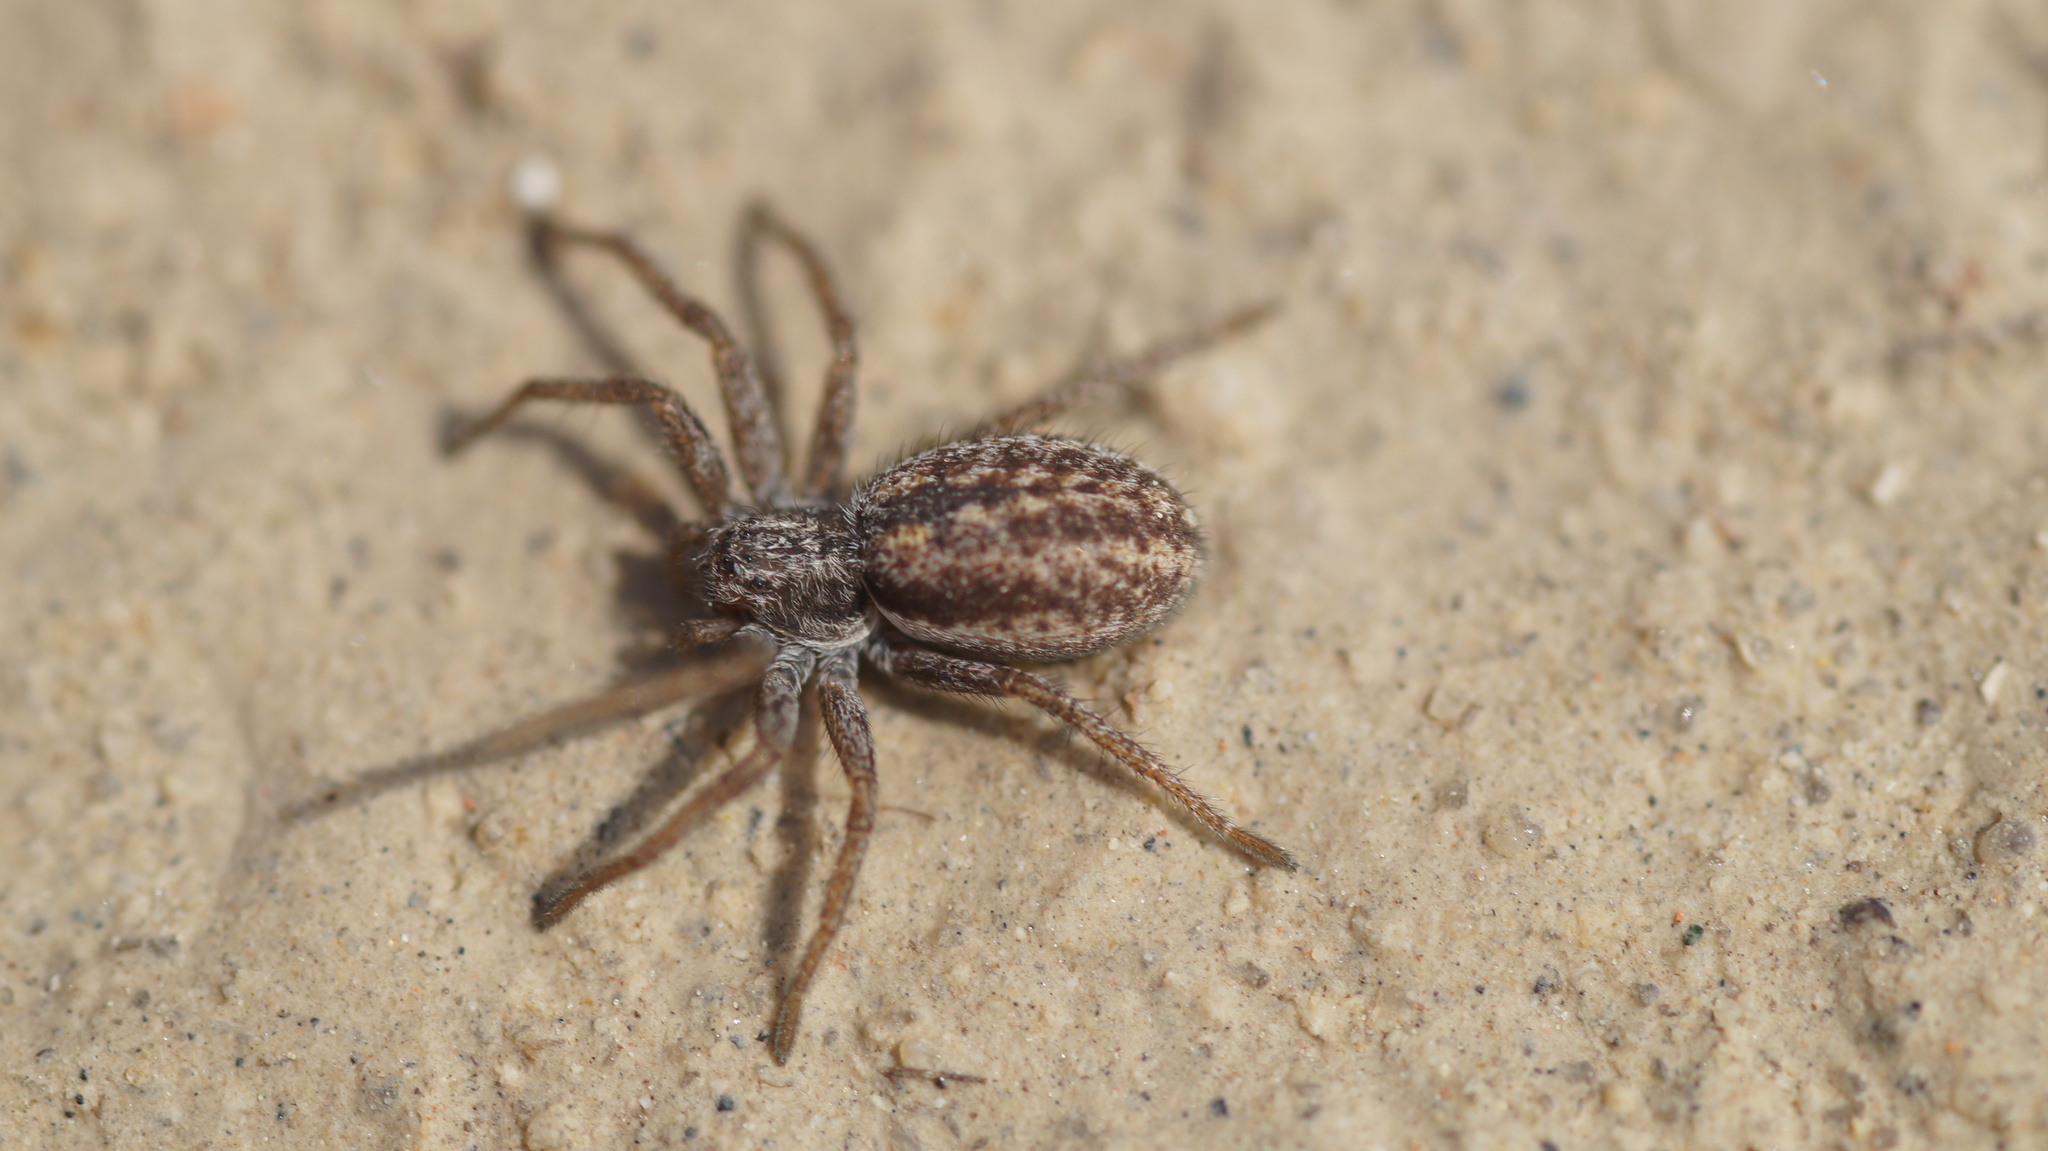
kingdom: Animalia
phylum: Arthropoda
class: Arachnida
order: Araneae
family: Philodromidae
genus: Thanatus
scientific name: Thanatus striatus
